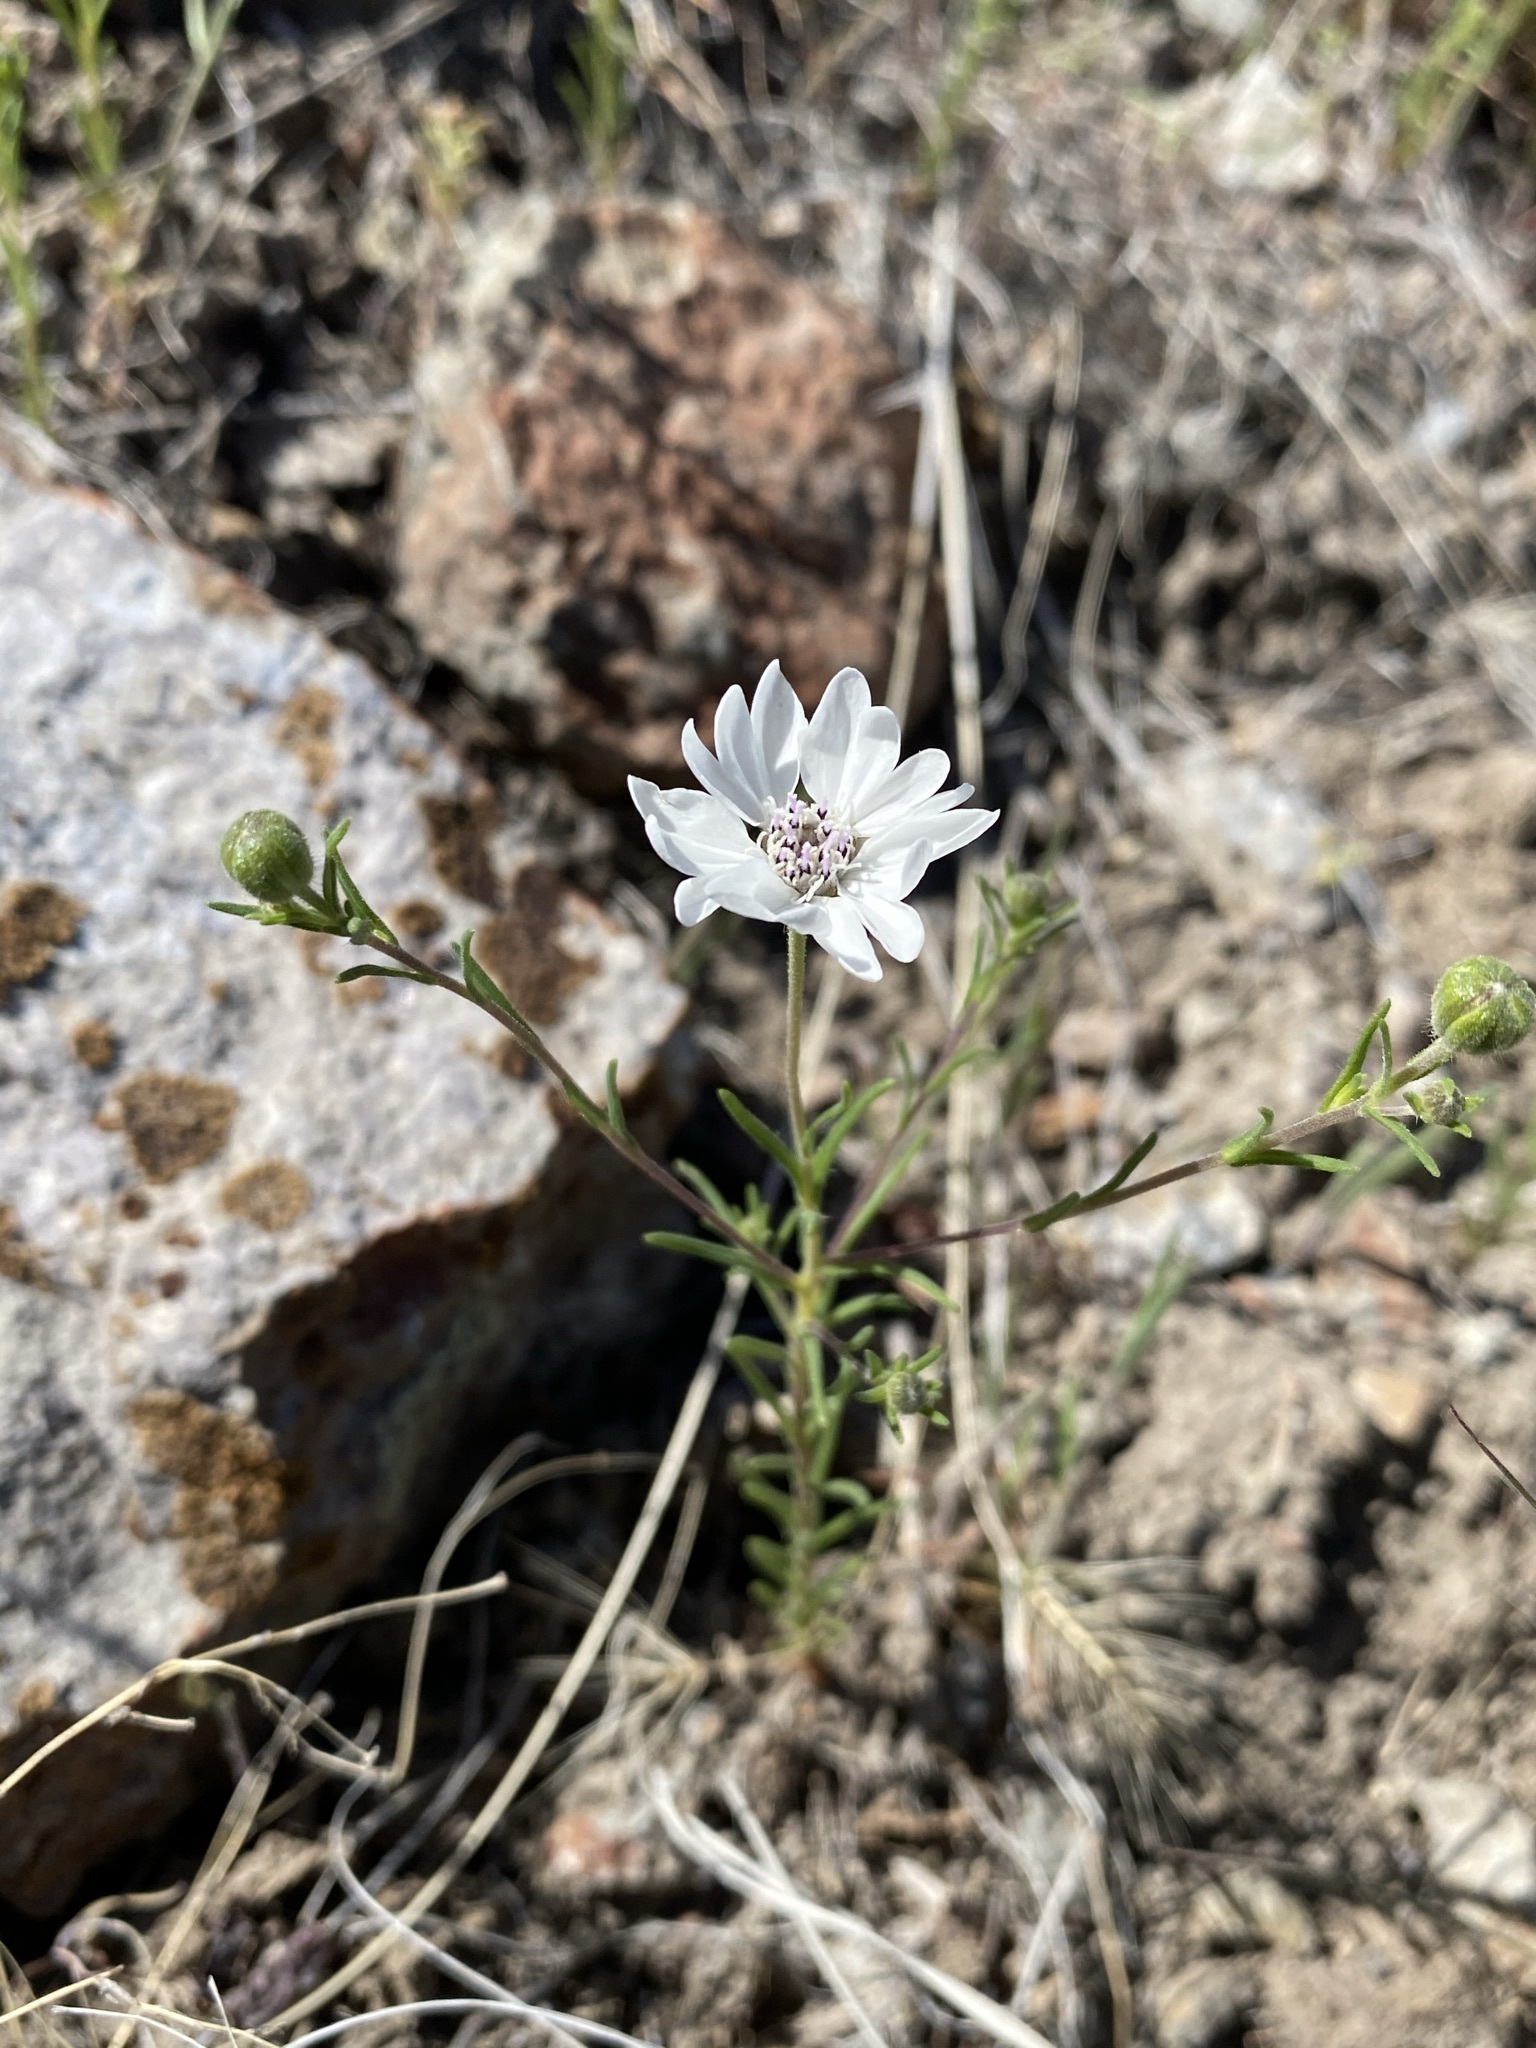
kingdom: Plantae
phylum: Tracheophyta
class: Magnoliopsida
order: Asterales
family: Asteraceae
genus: Blepharipappus
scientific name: Blepharipappus scaber
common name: Rough blepharipappus
